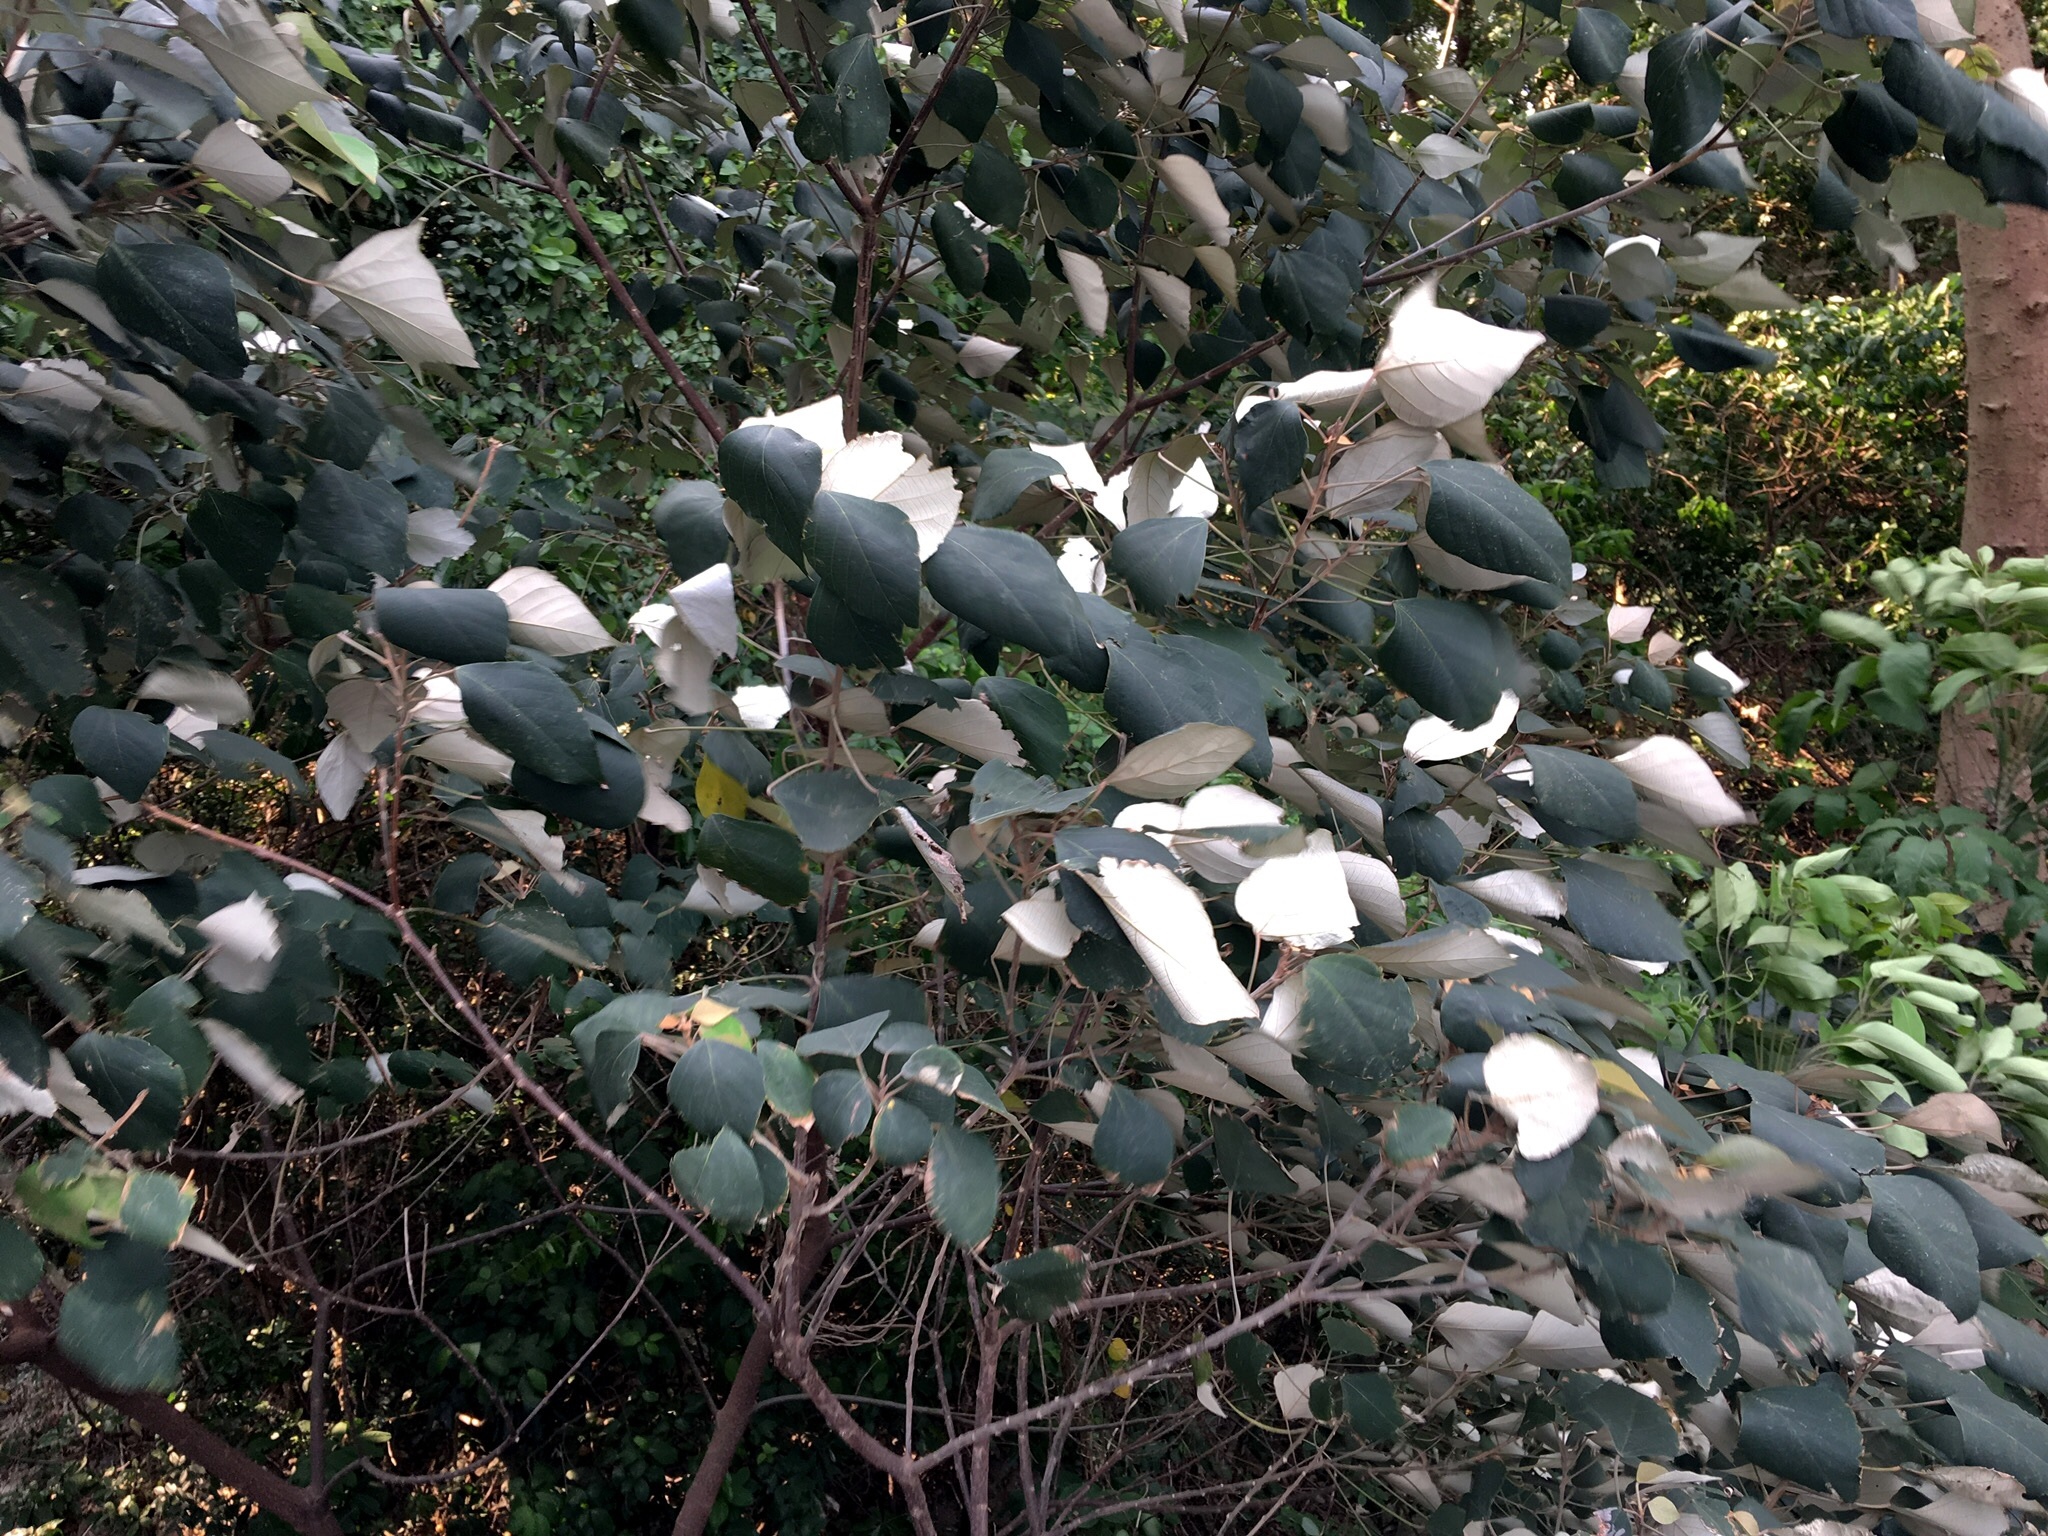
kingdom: Plantae
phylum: Tracheophyta
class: Magnoliopsida
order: Malpighiales
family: Euphorbiaceae
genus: Mallotus
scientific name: Mallotus paniculatus
